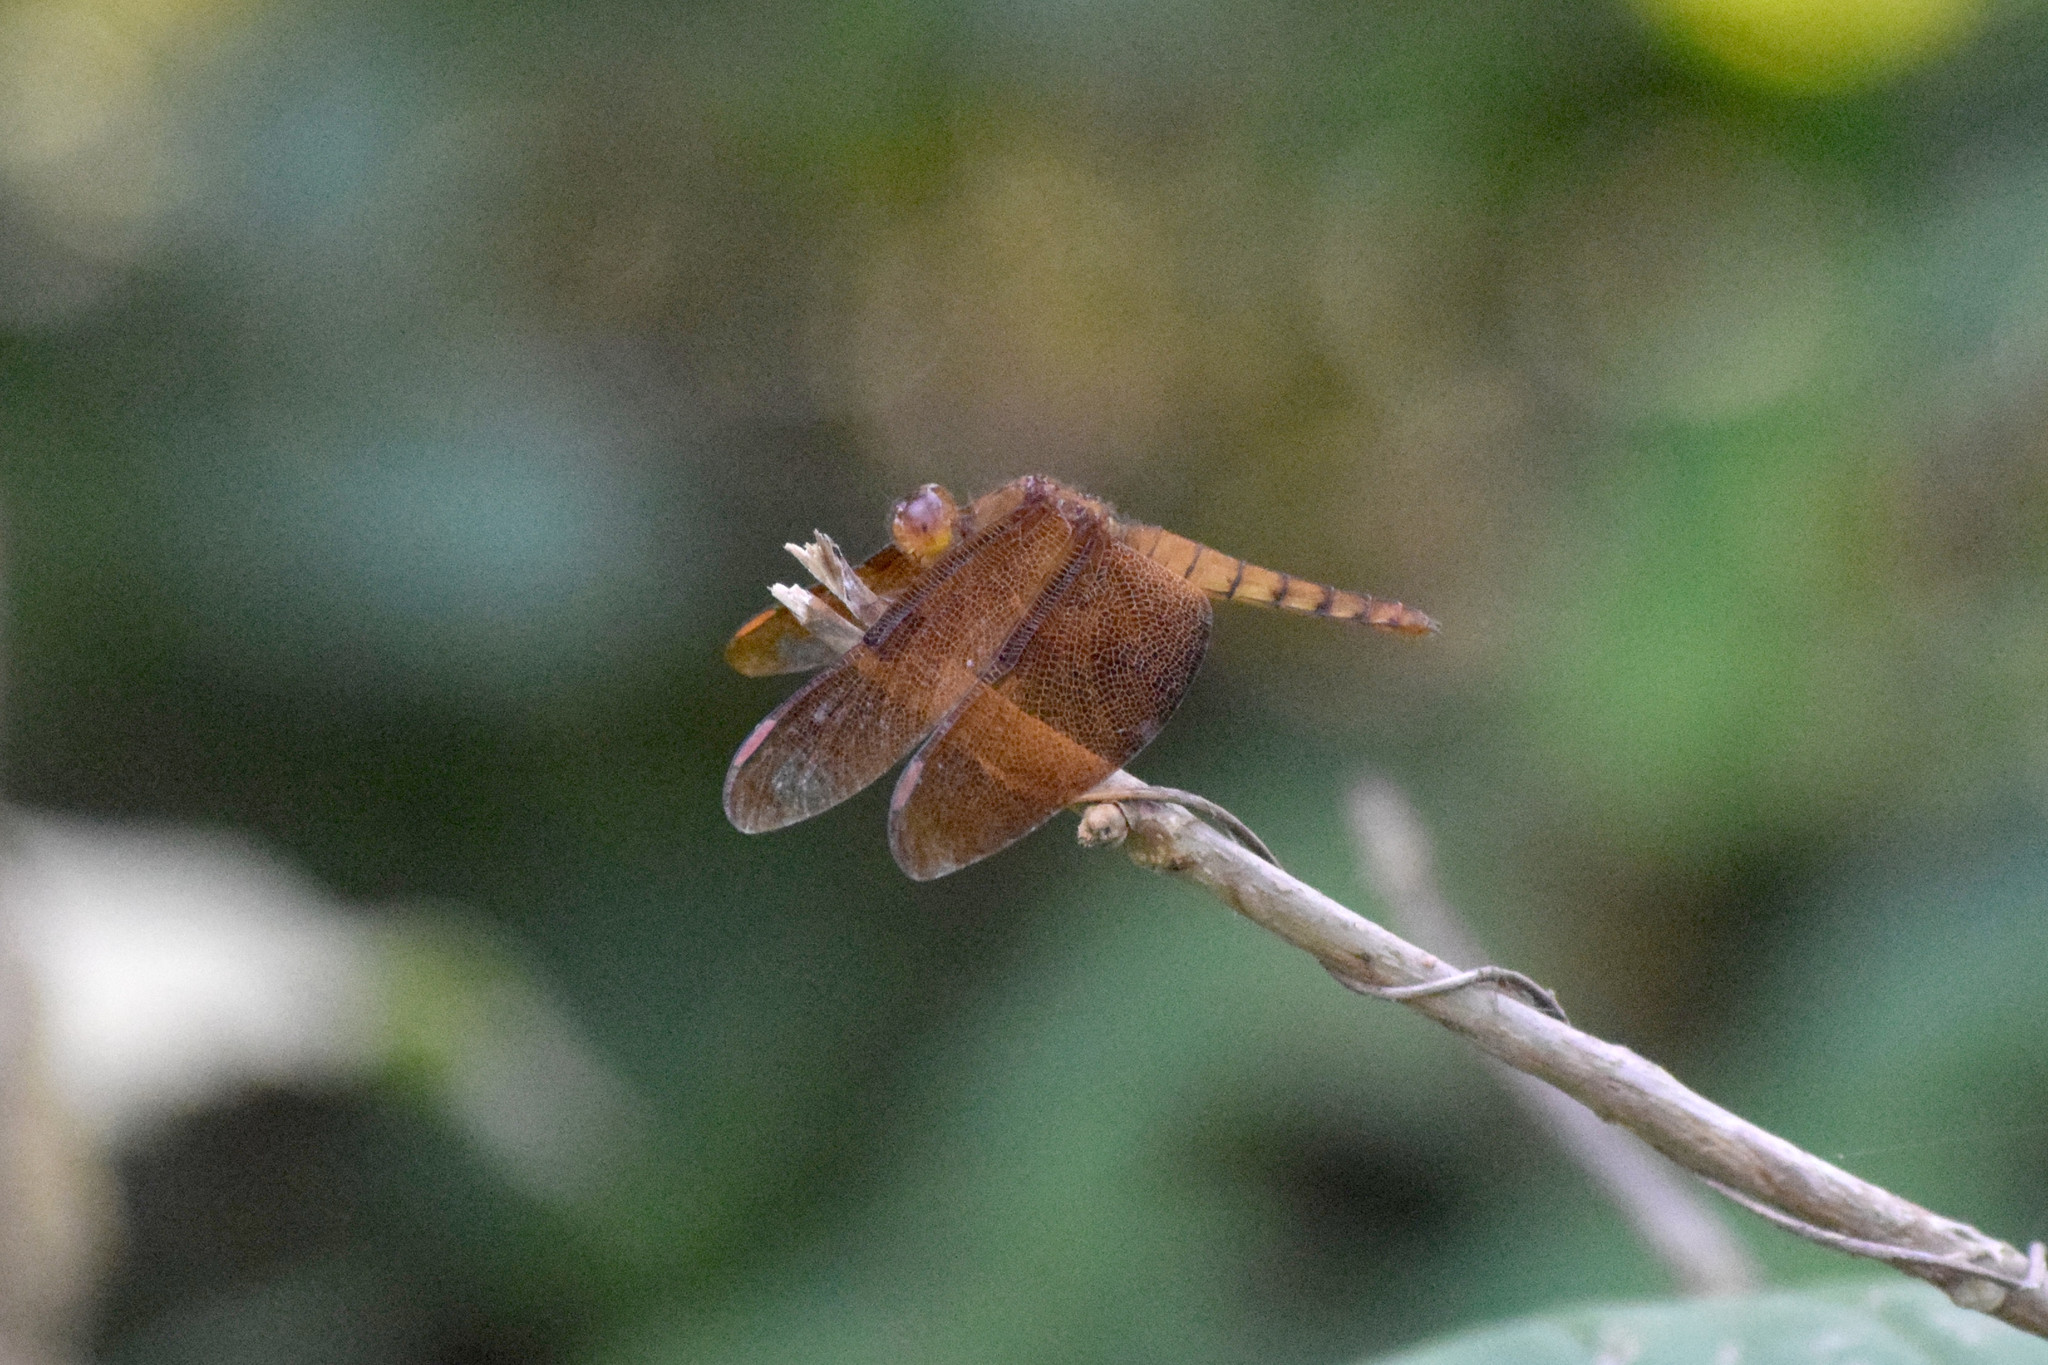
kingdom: Animalia
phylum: Arthropoda
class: Insecta
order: Odonata
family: Libellulidae
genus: Neurothemis
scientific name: Neurothemis fulvia
